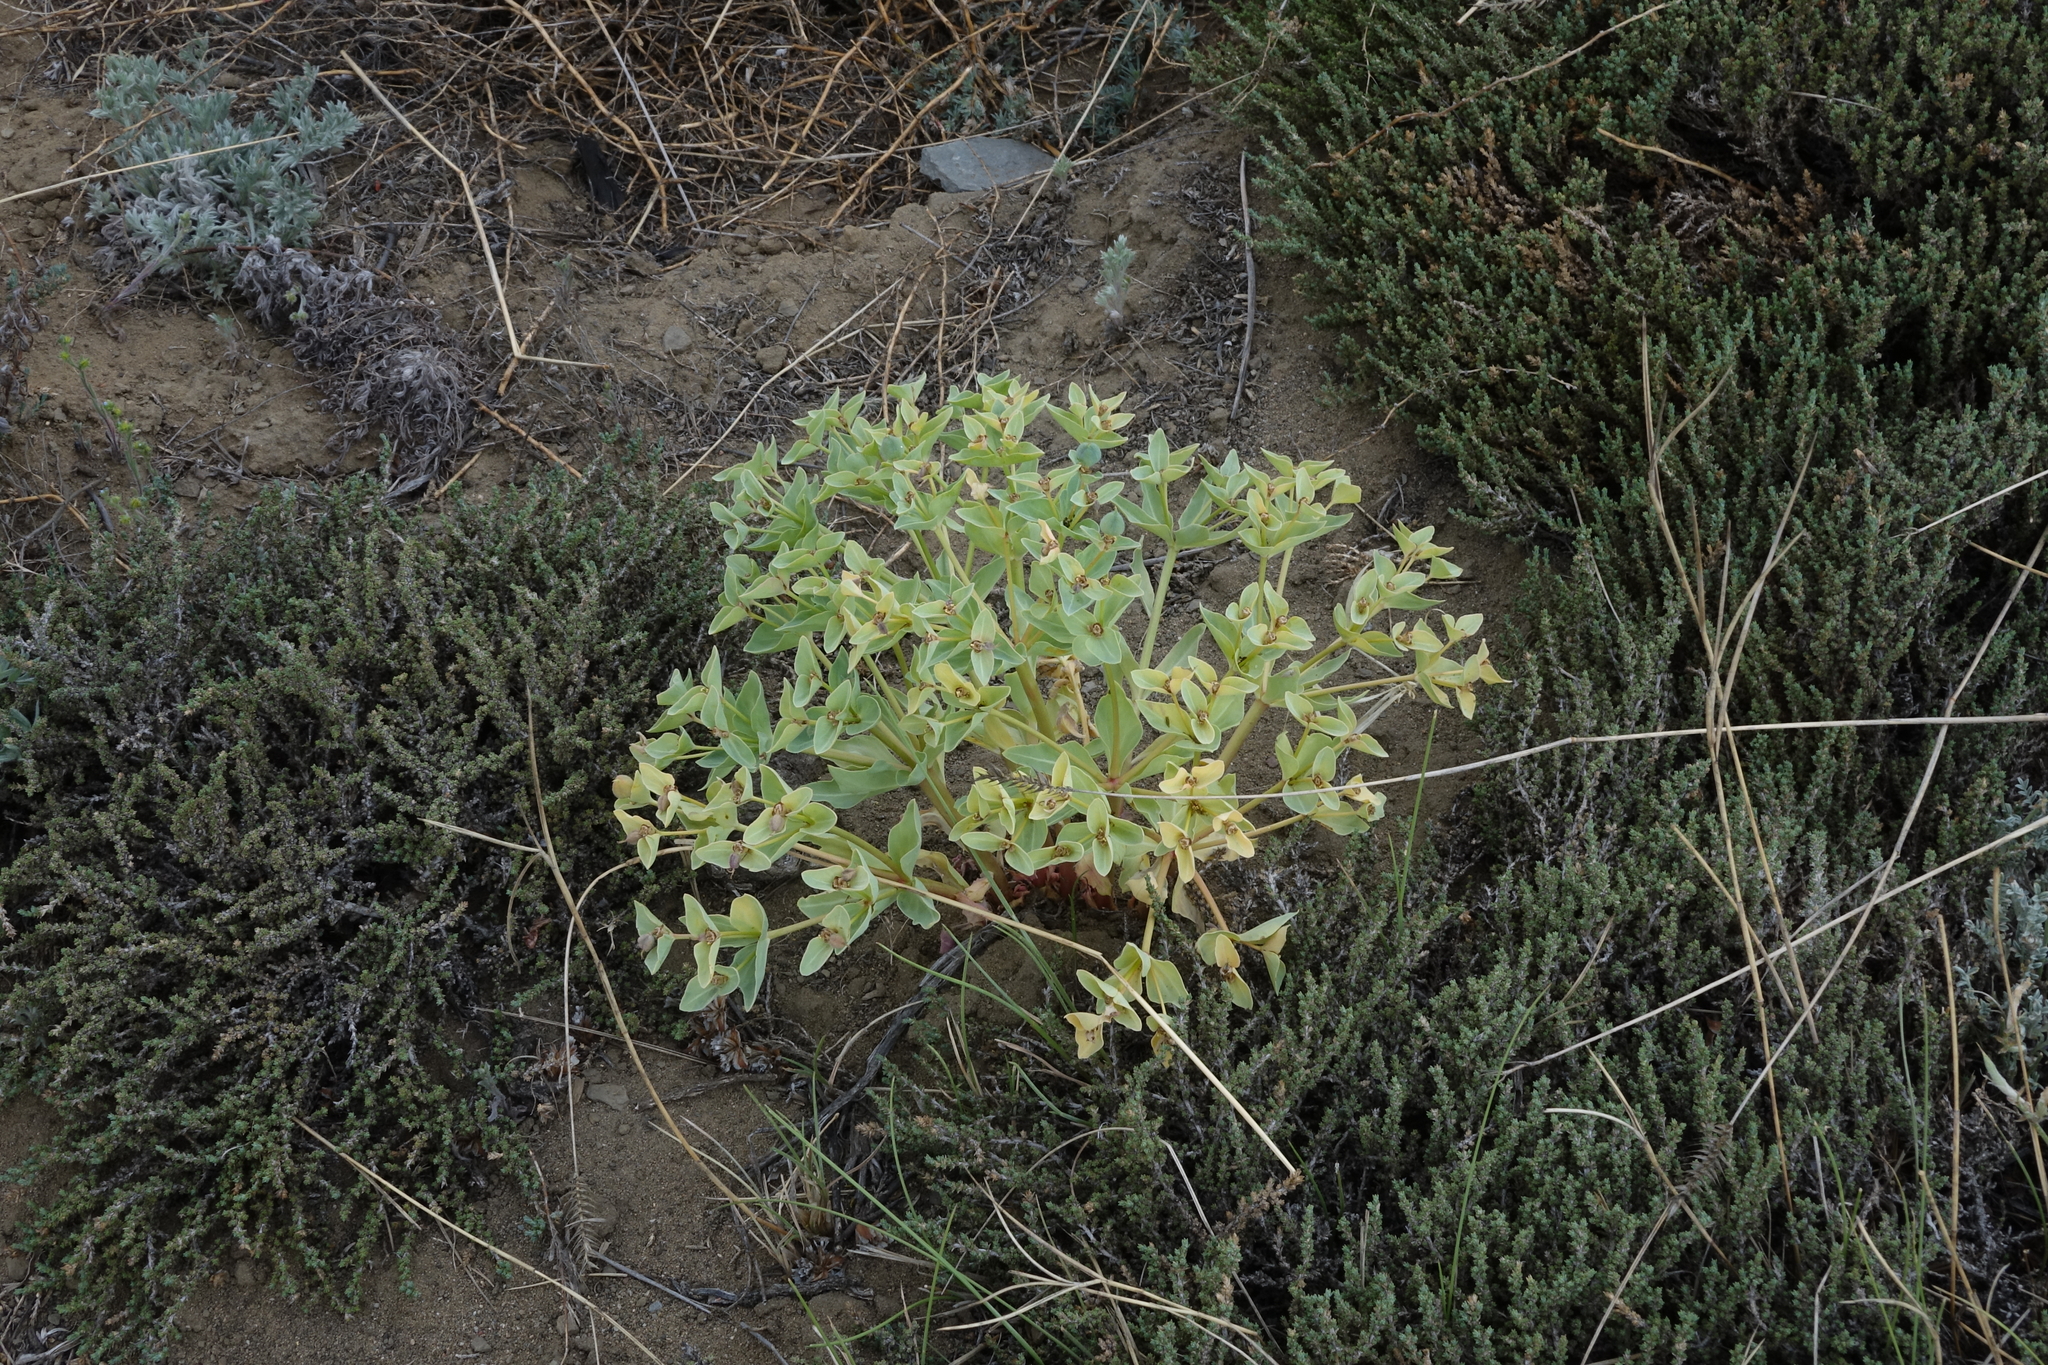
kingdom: Plantae
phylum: Tracheophyta
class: Magnoliopsida
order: Malpighiales
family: Euphorbiaceae
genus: Euphorbia
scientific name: Euphorbia mongolica
